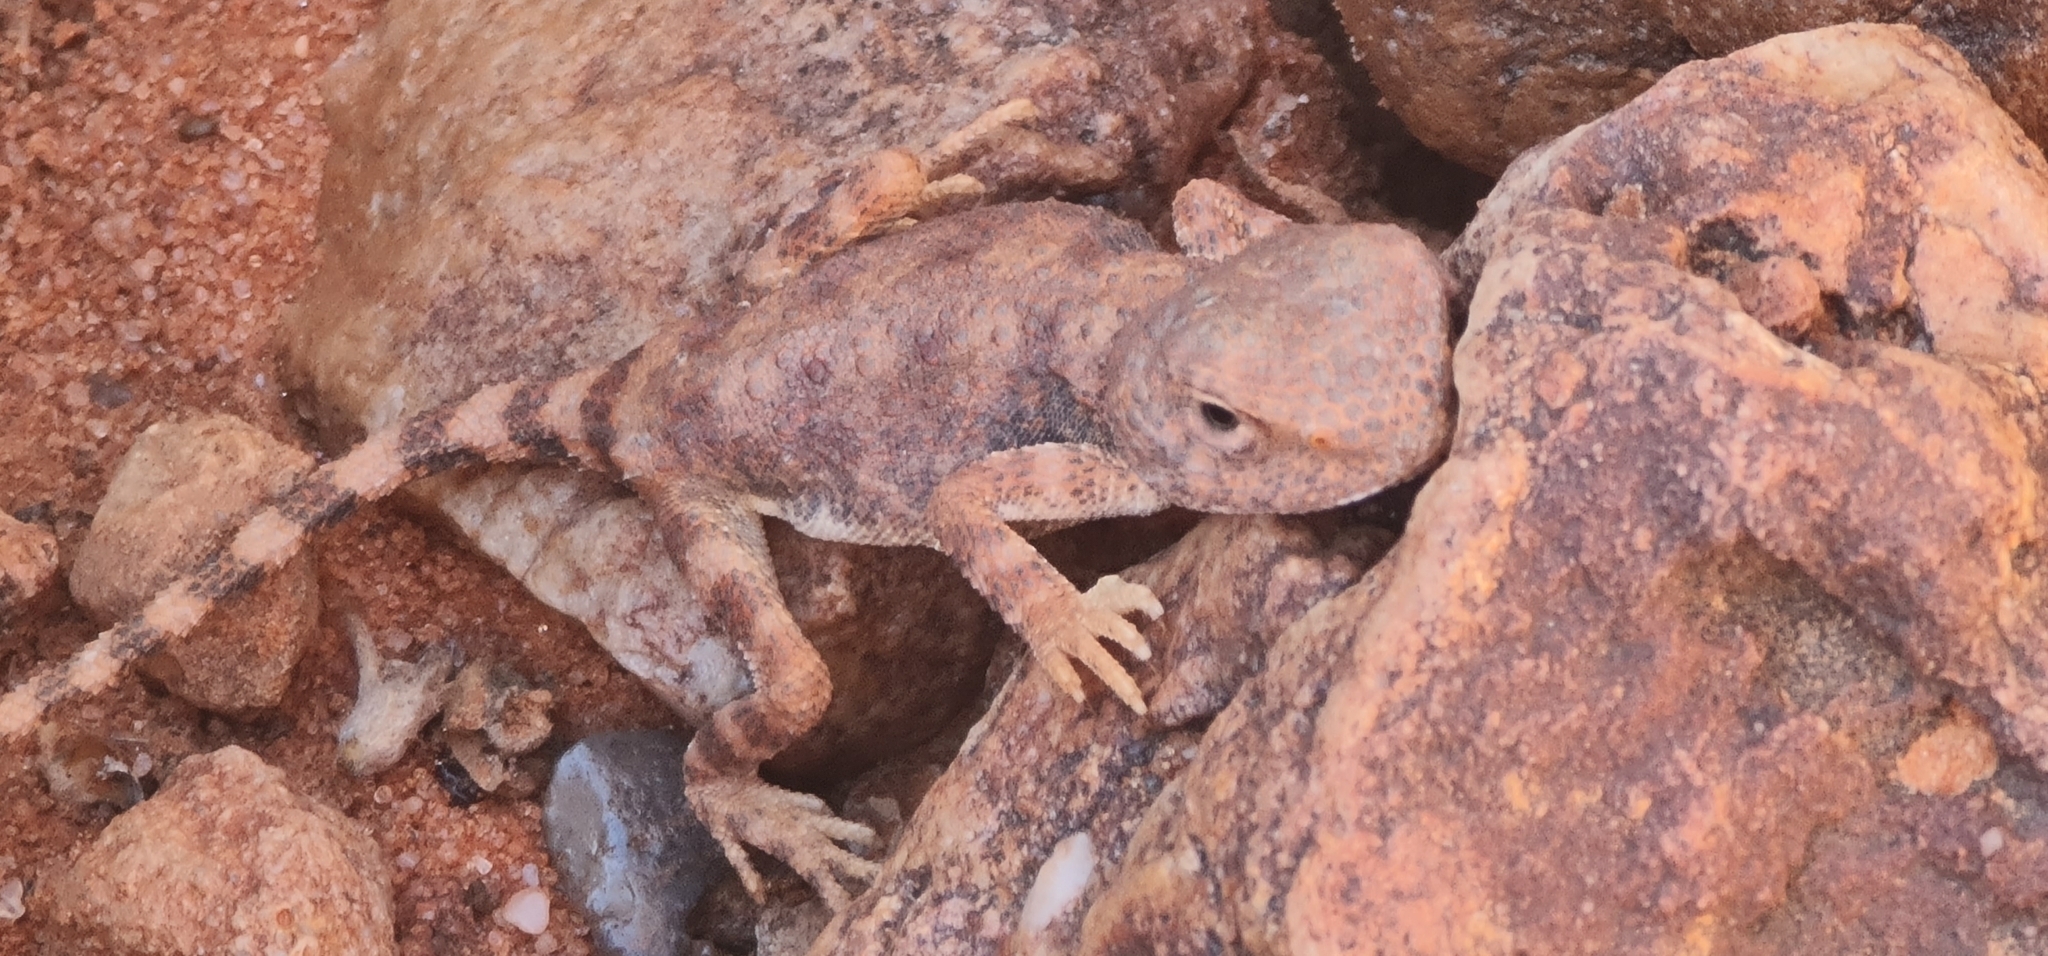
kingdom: Animalia
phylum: Chordata
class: Squamata
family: Agamidae
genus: Tympanocryptis
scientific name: Tympanocryptis intima
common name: Gibber earless dragon
